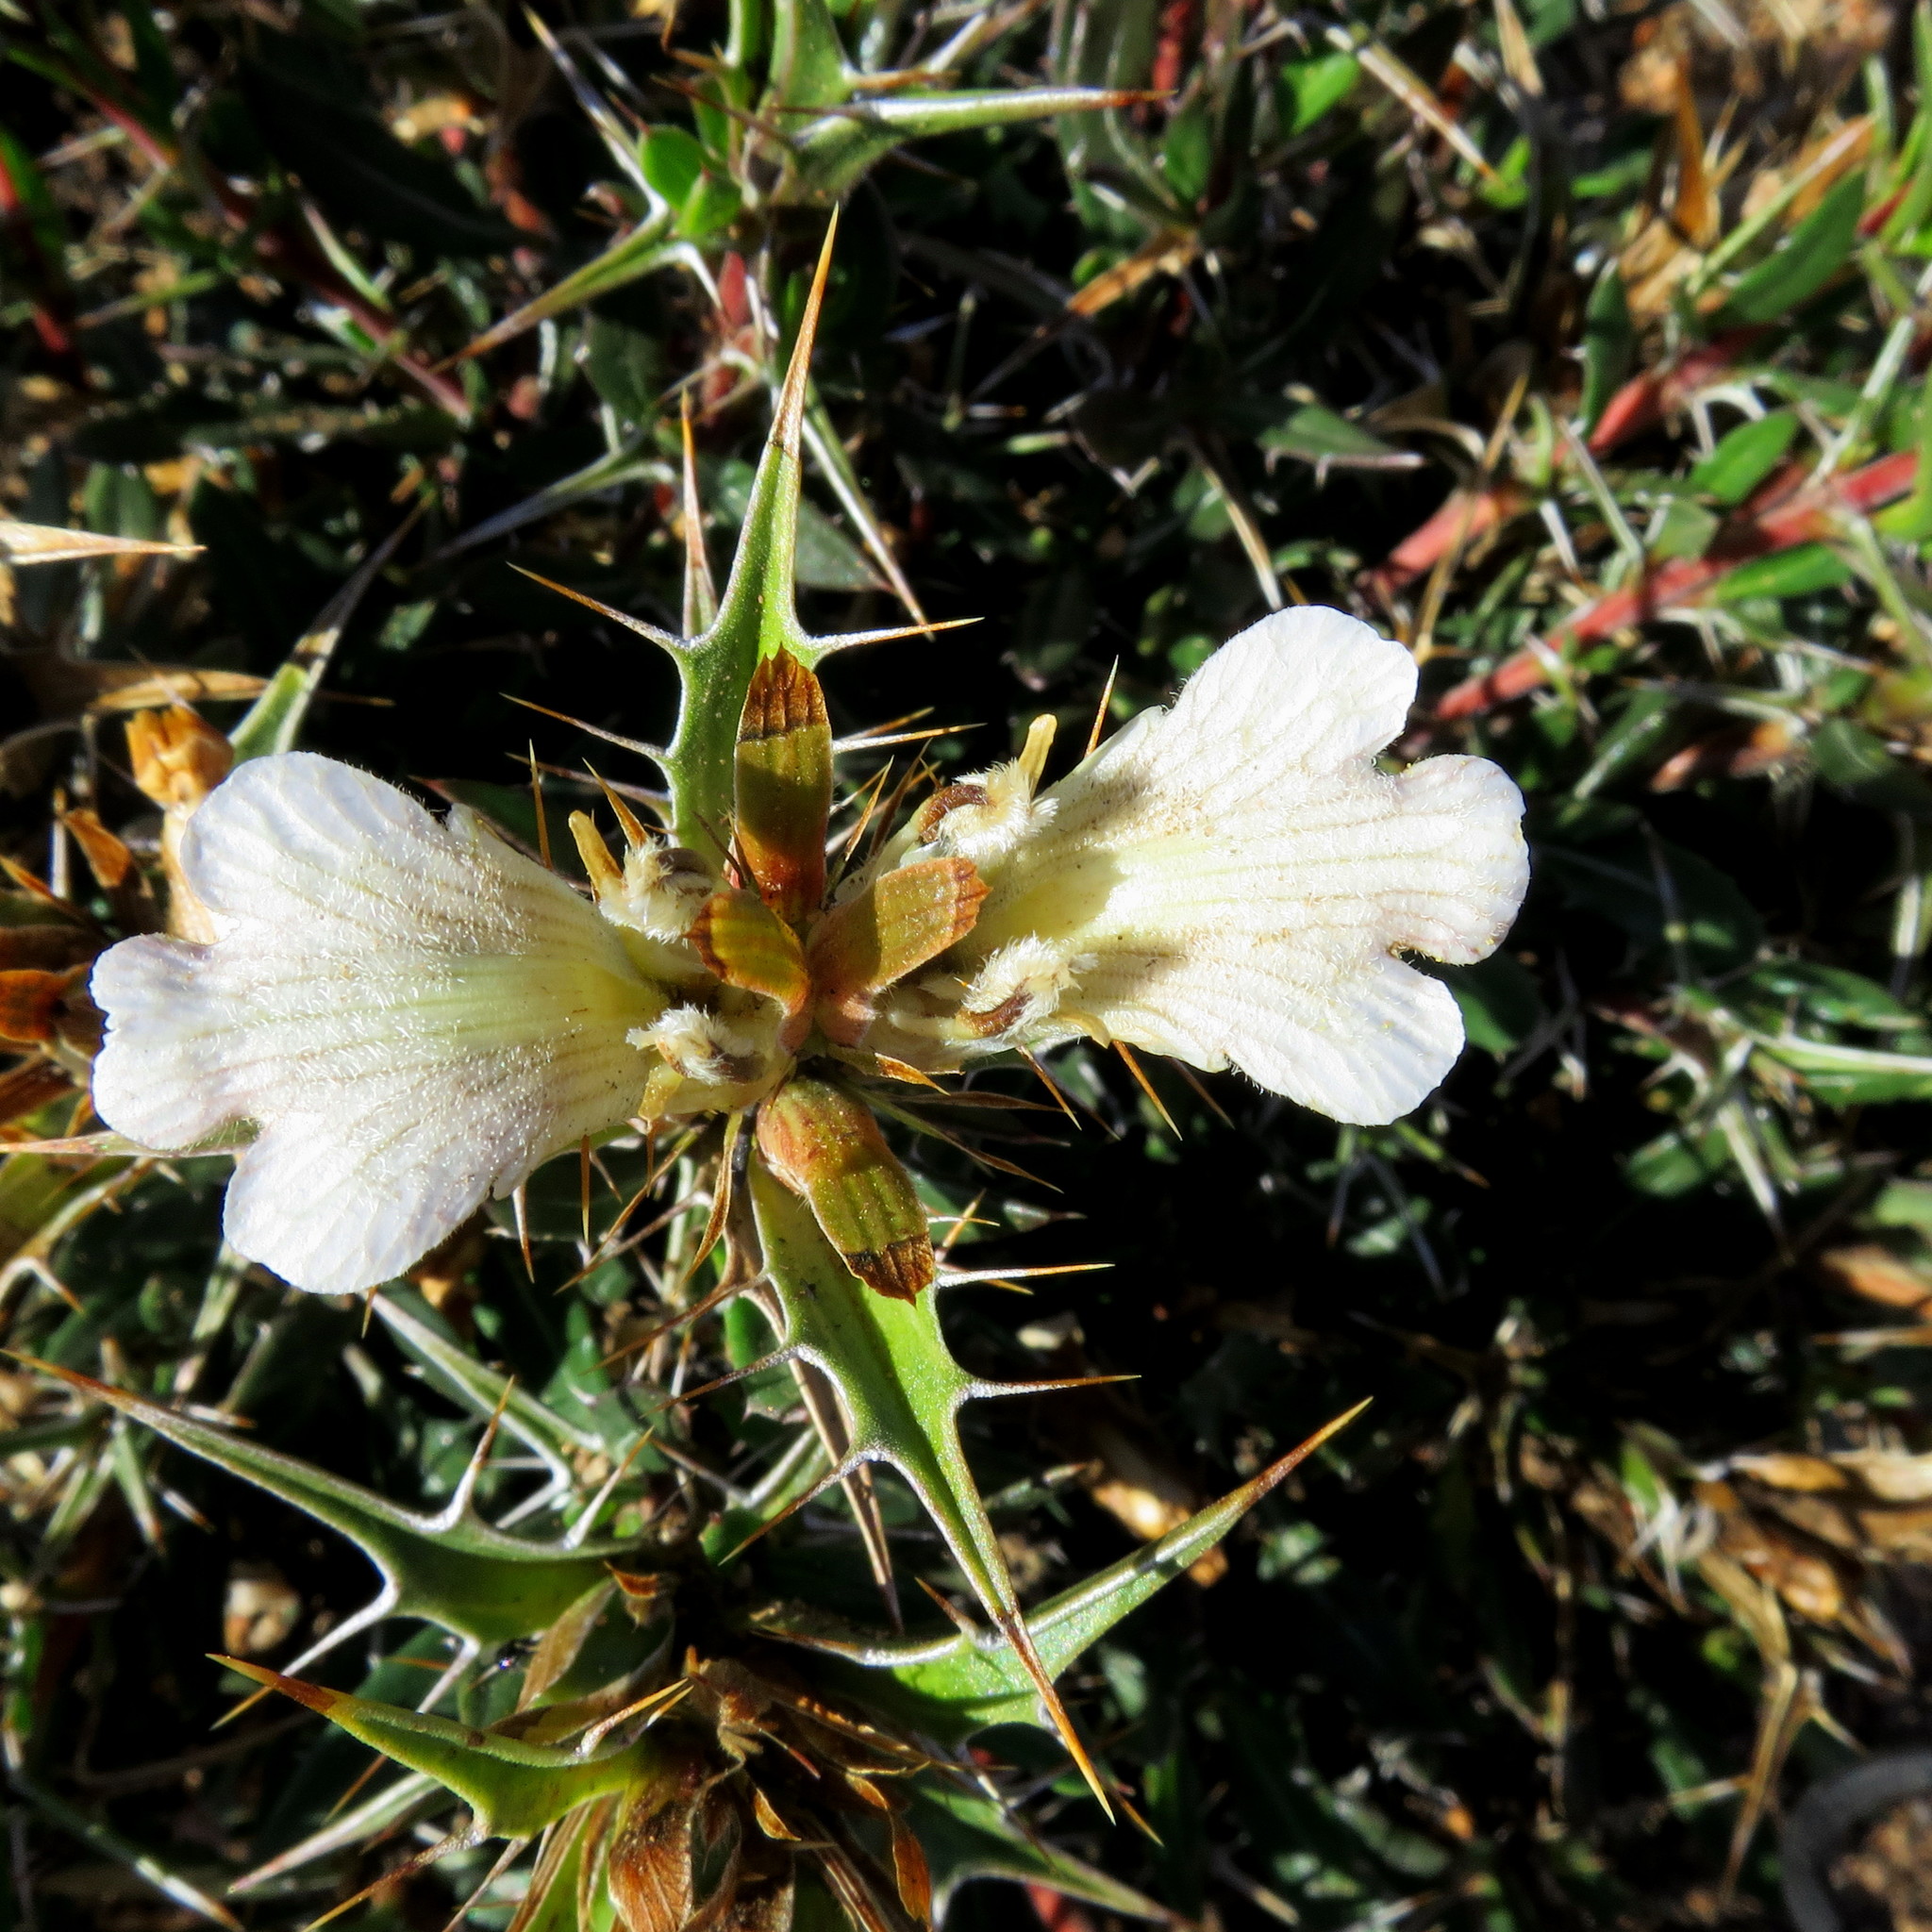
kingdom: Plantae
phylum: Tracheophyta
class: Magnoliopsida
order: Lamiales
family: Acanthaceae
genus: Blepharis
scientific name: Blepharis capensis
